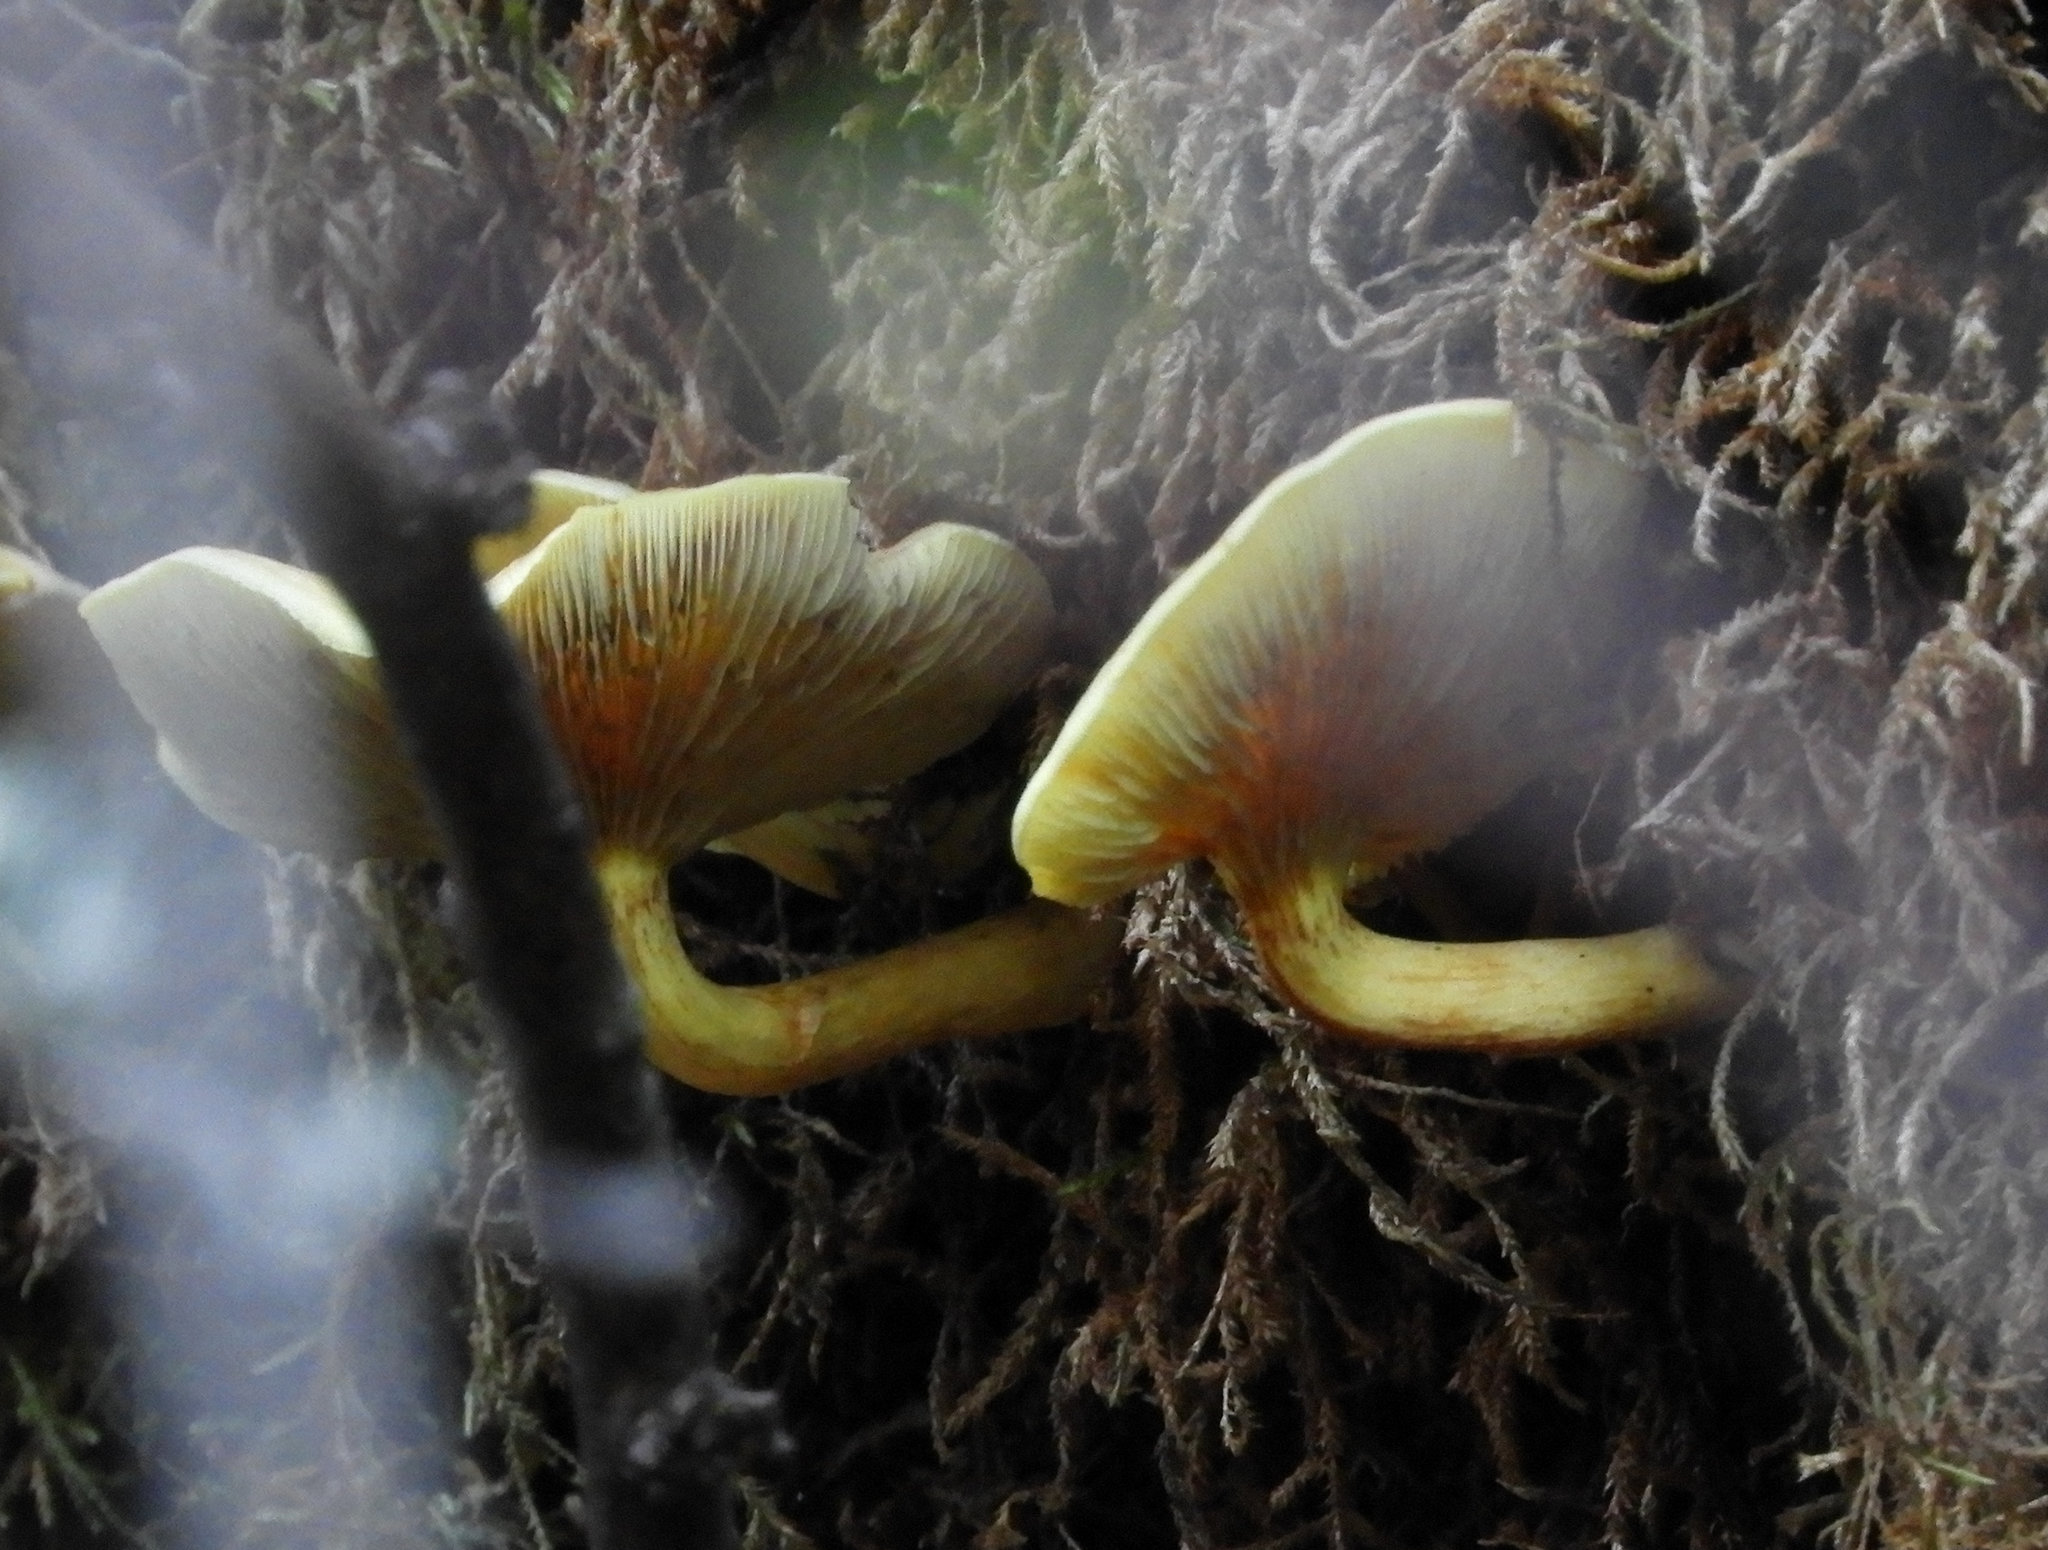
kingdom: Fungi
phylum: Basidiomycota
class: Agaricomycetes
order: Agaricales
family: Strophariaceae
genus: Hypholoma
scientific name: Hypholoma fasciculare
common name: Sulphur tuft
